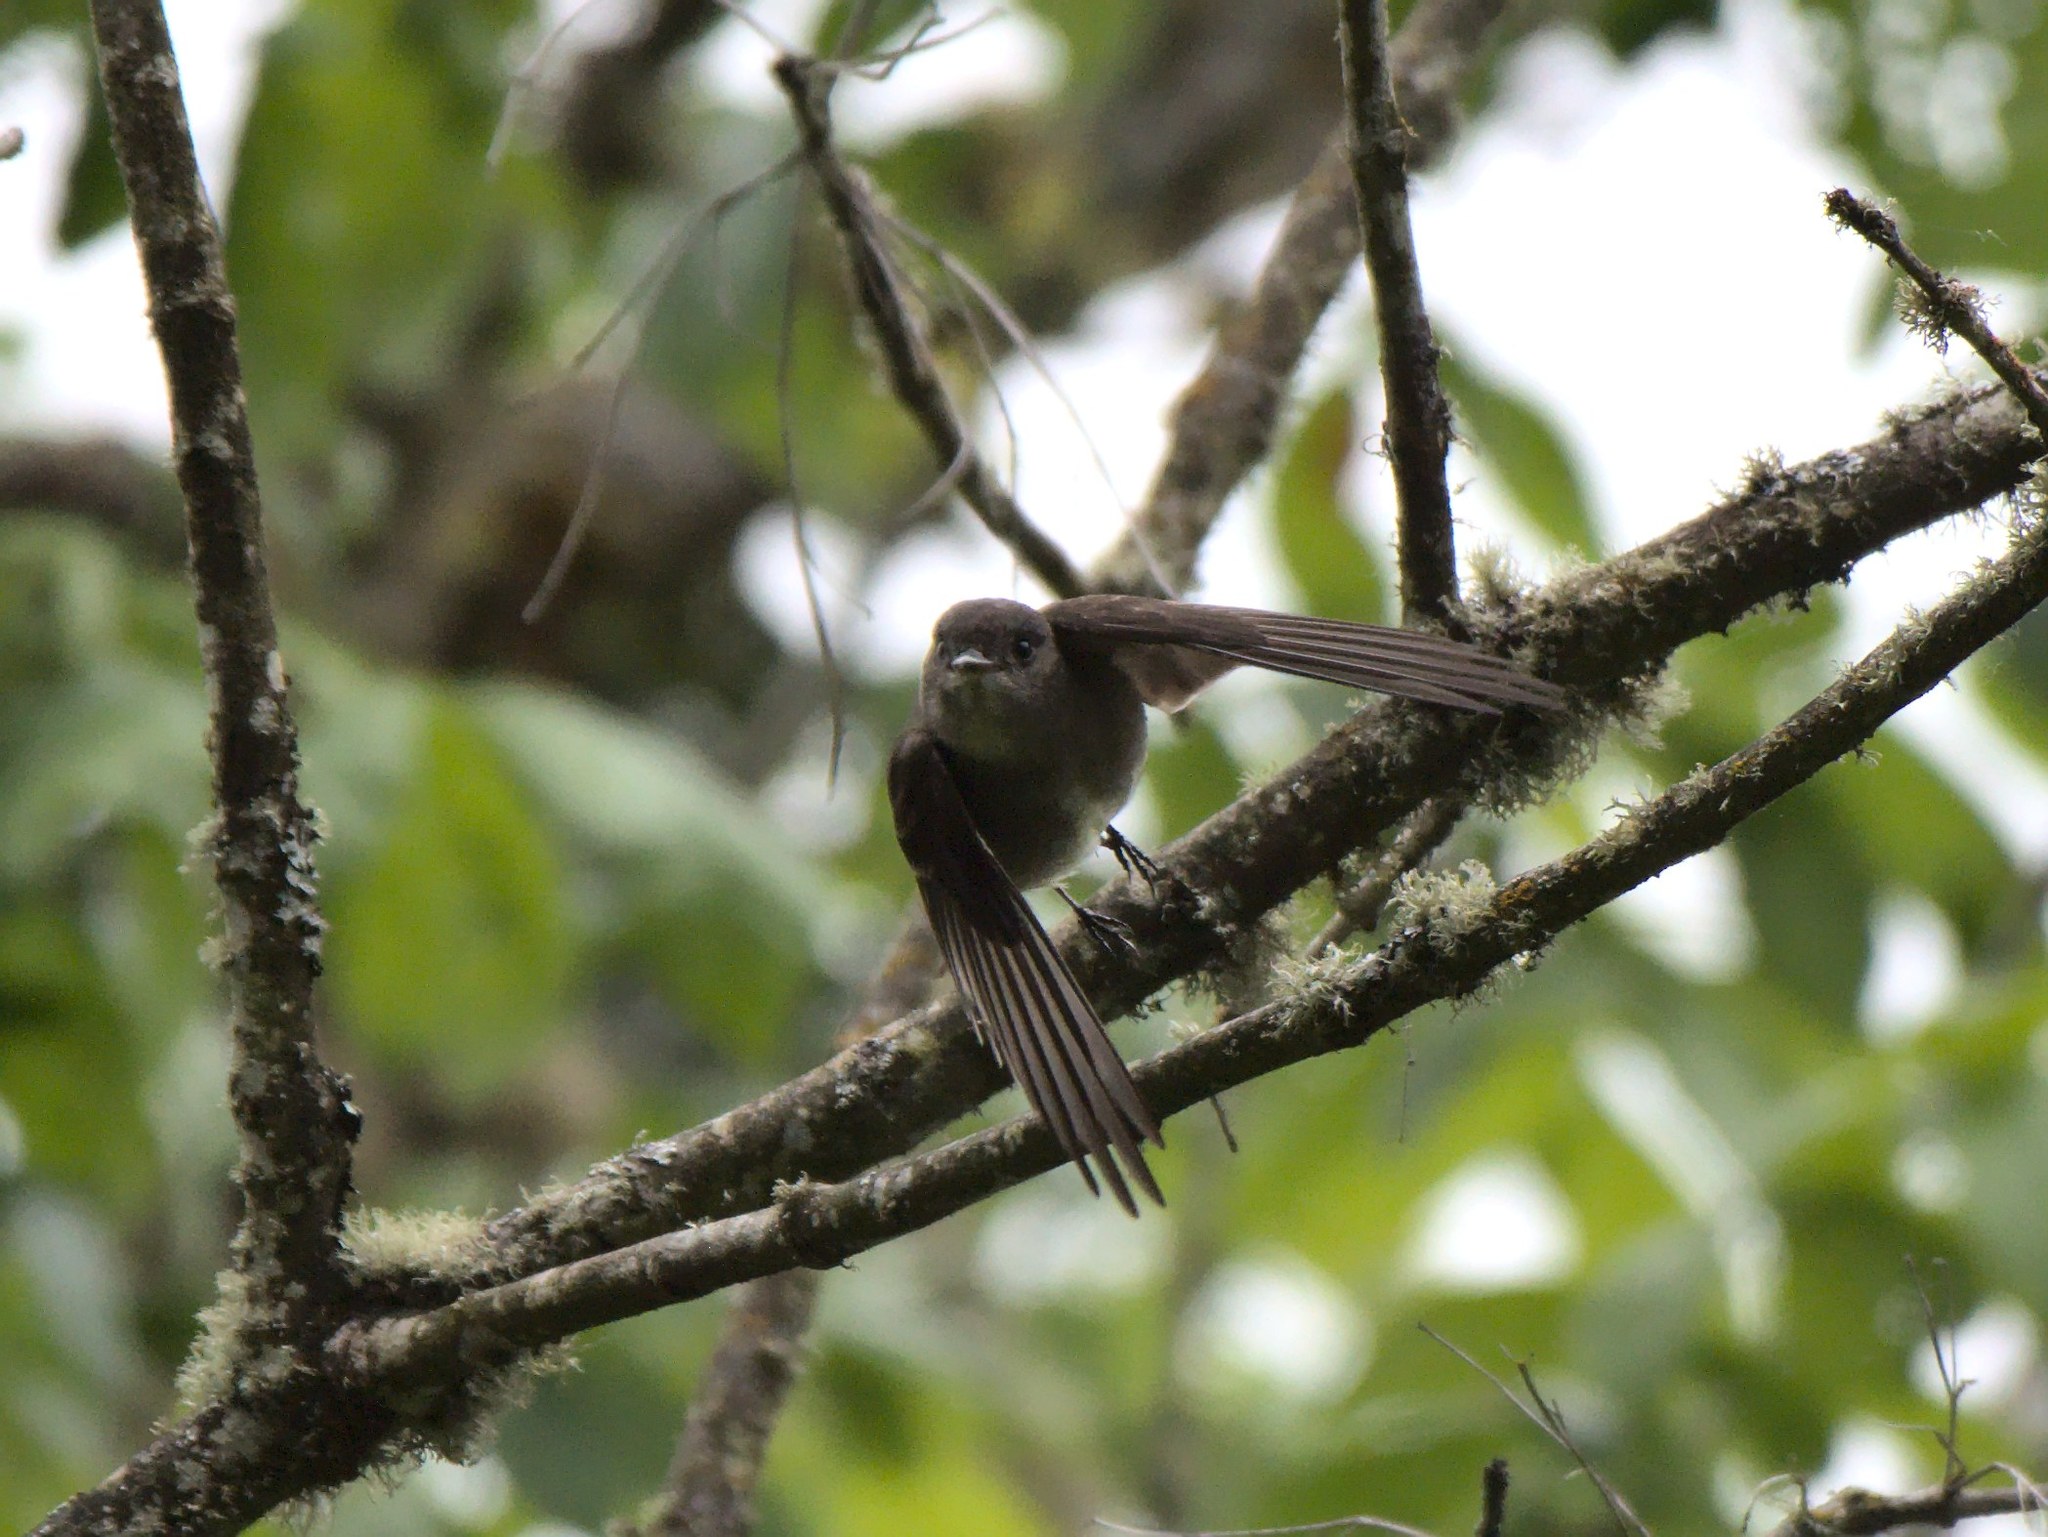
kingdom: Animalia
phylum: Chordata
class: Aves
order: Passeriformes
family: Tyrannidae
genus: Contopus
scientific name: Contopus sordidulus
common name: Western wood-pewee
